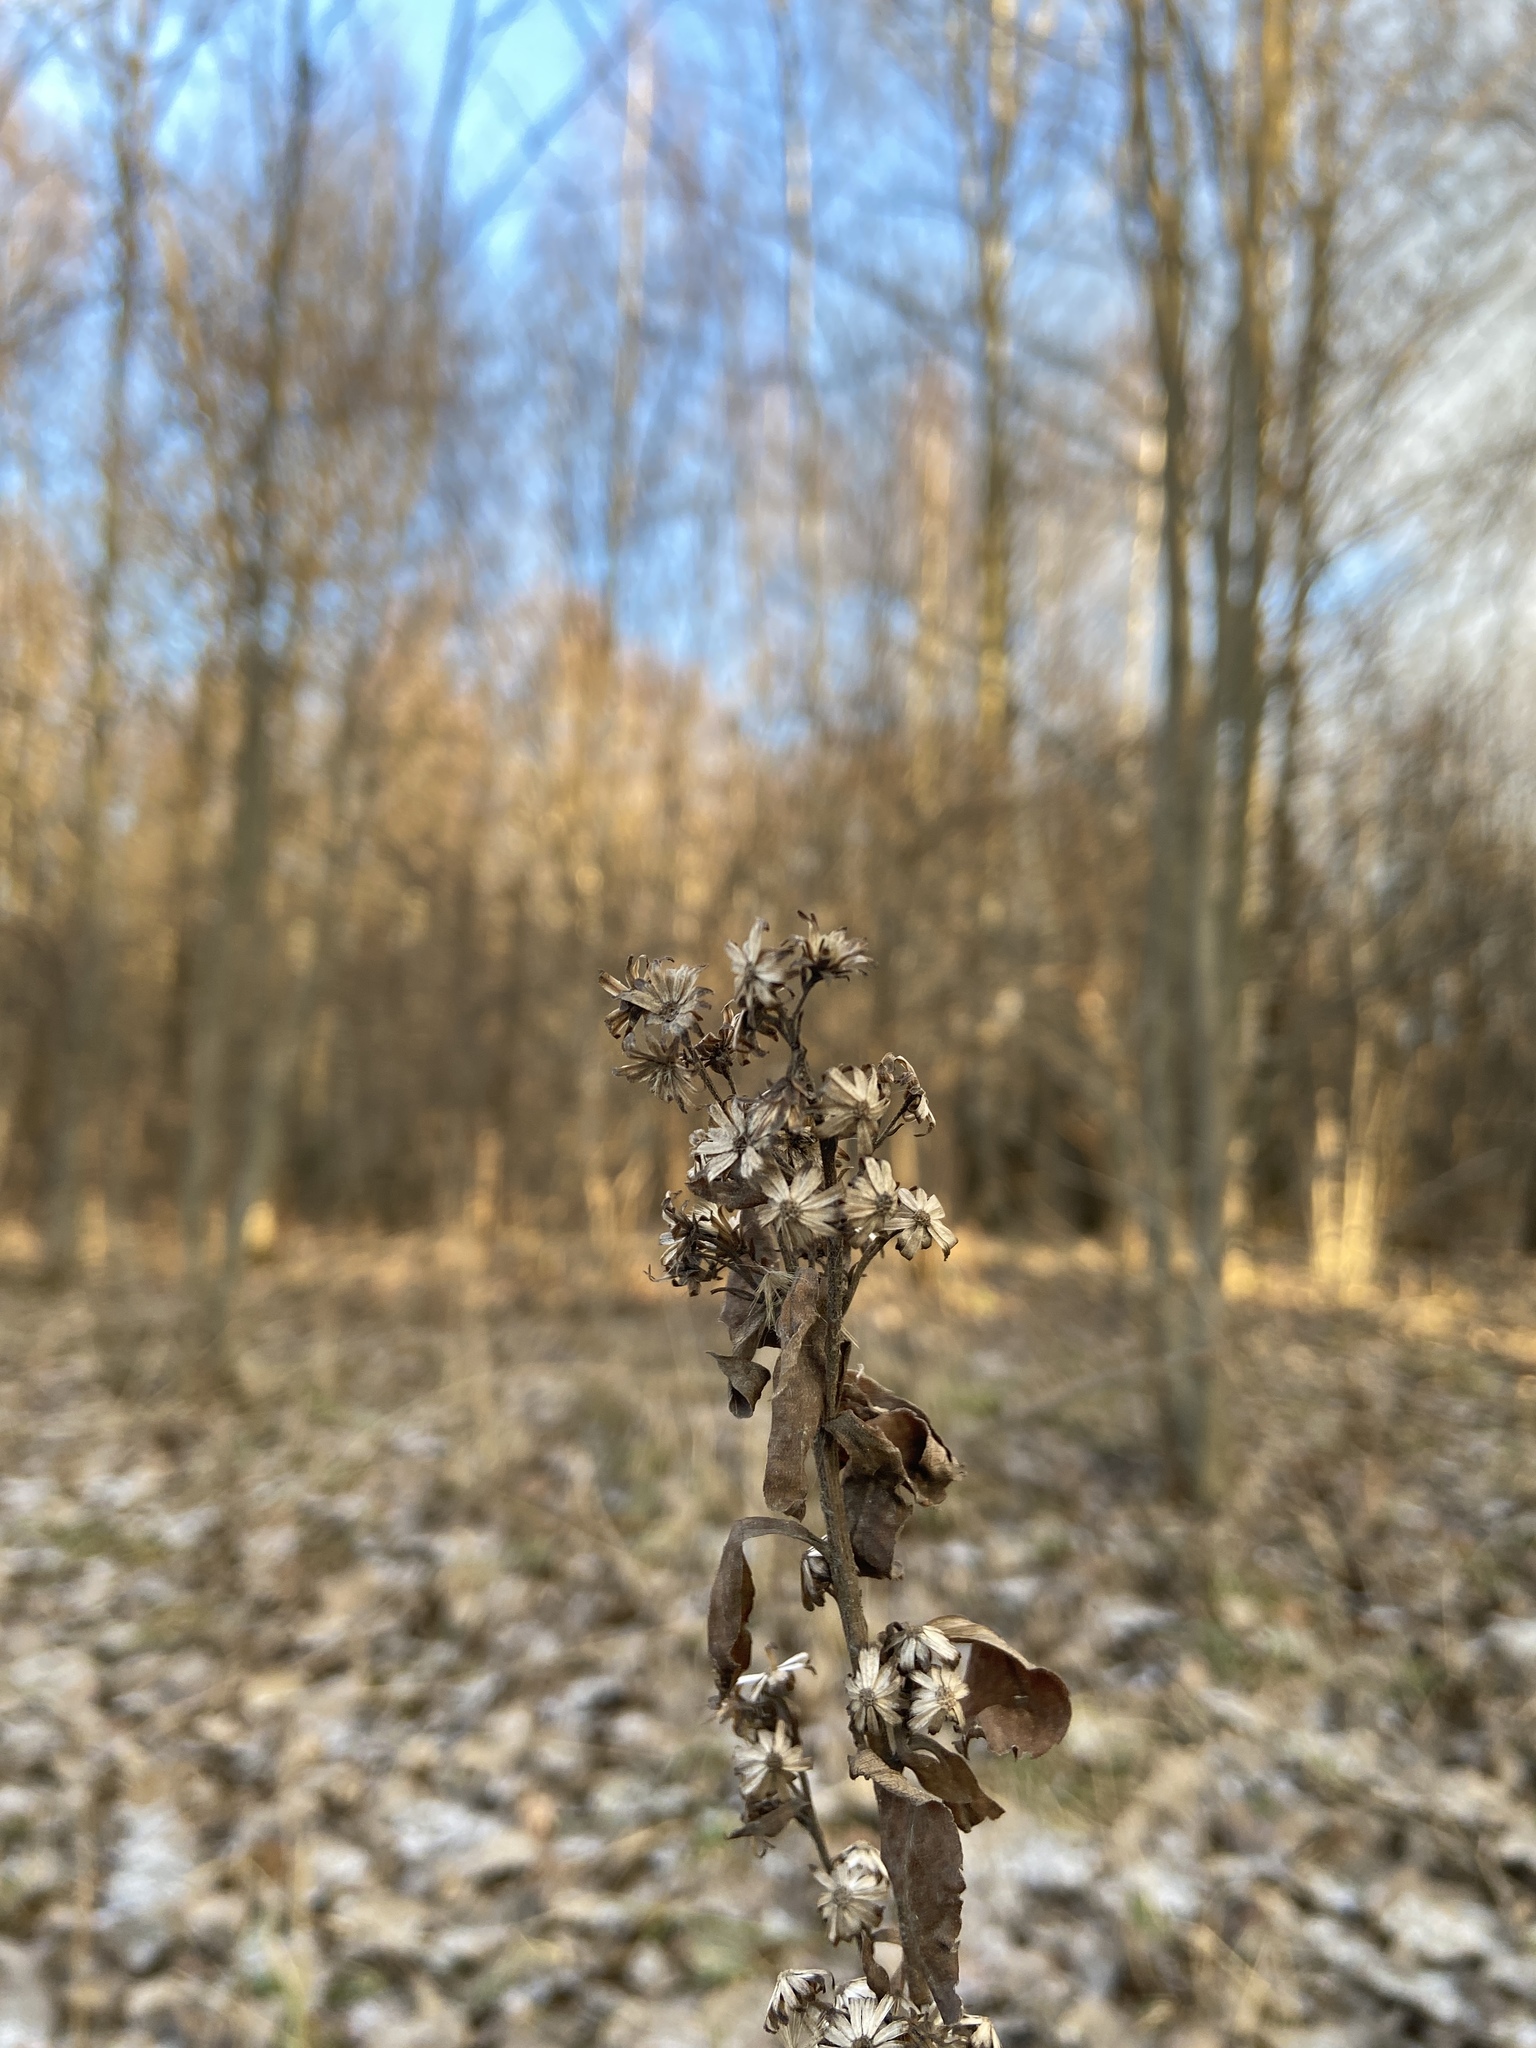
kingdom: Plantae
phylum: Tracheophyta
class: Magnoliopsida
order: Asterales
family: Asteraceae
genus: Solidago
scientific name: Solidago virgaurea
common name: Goldenrod
